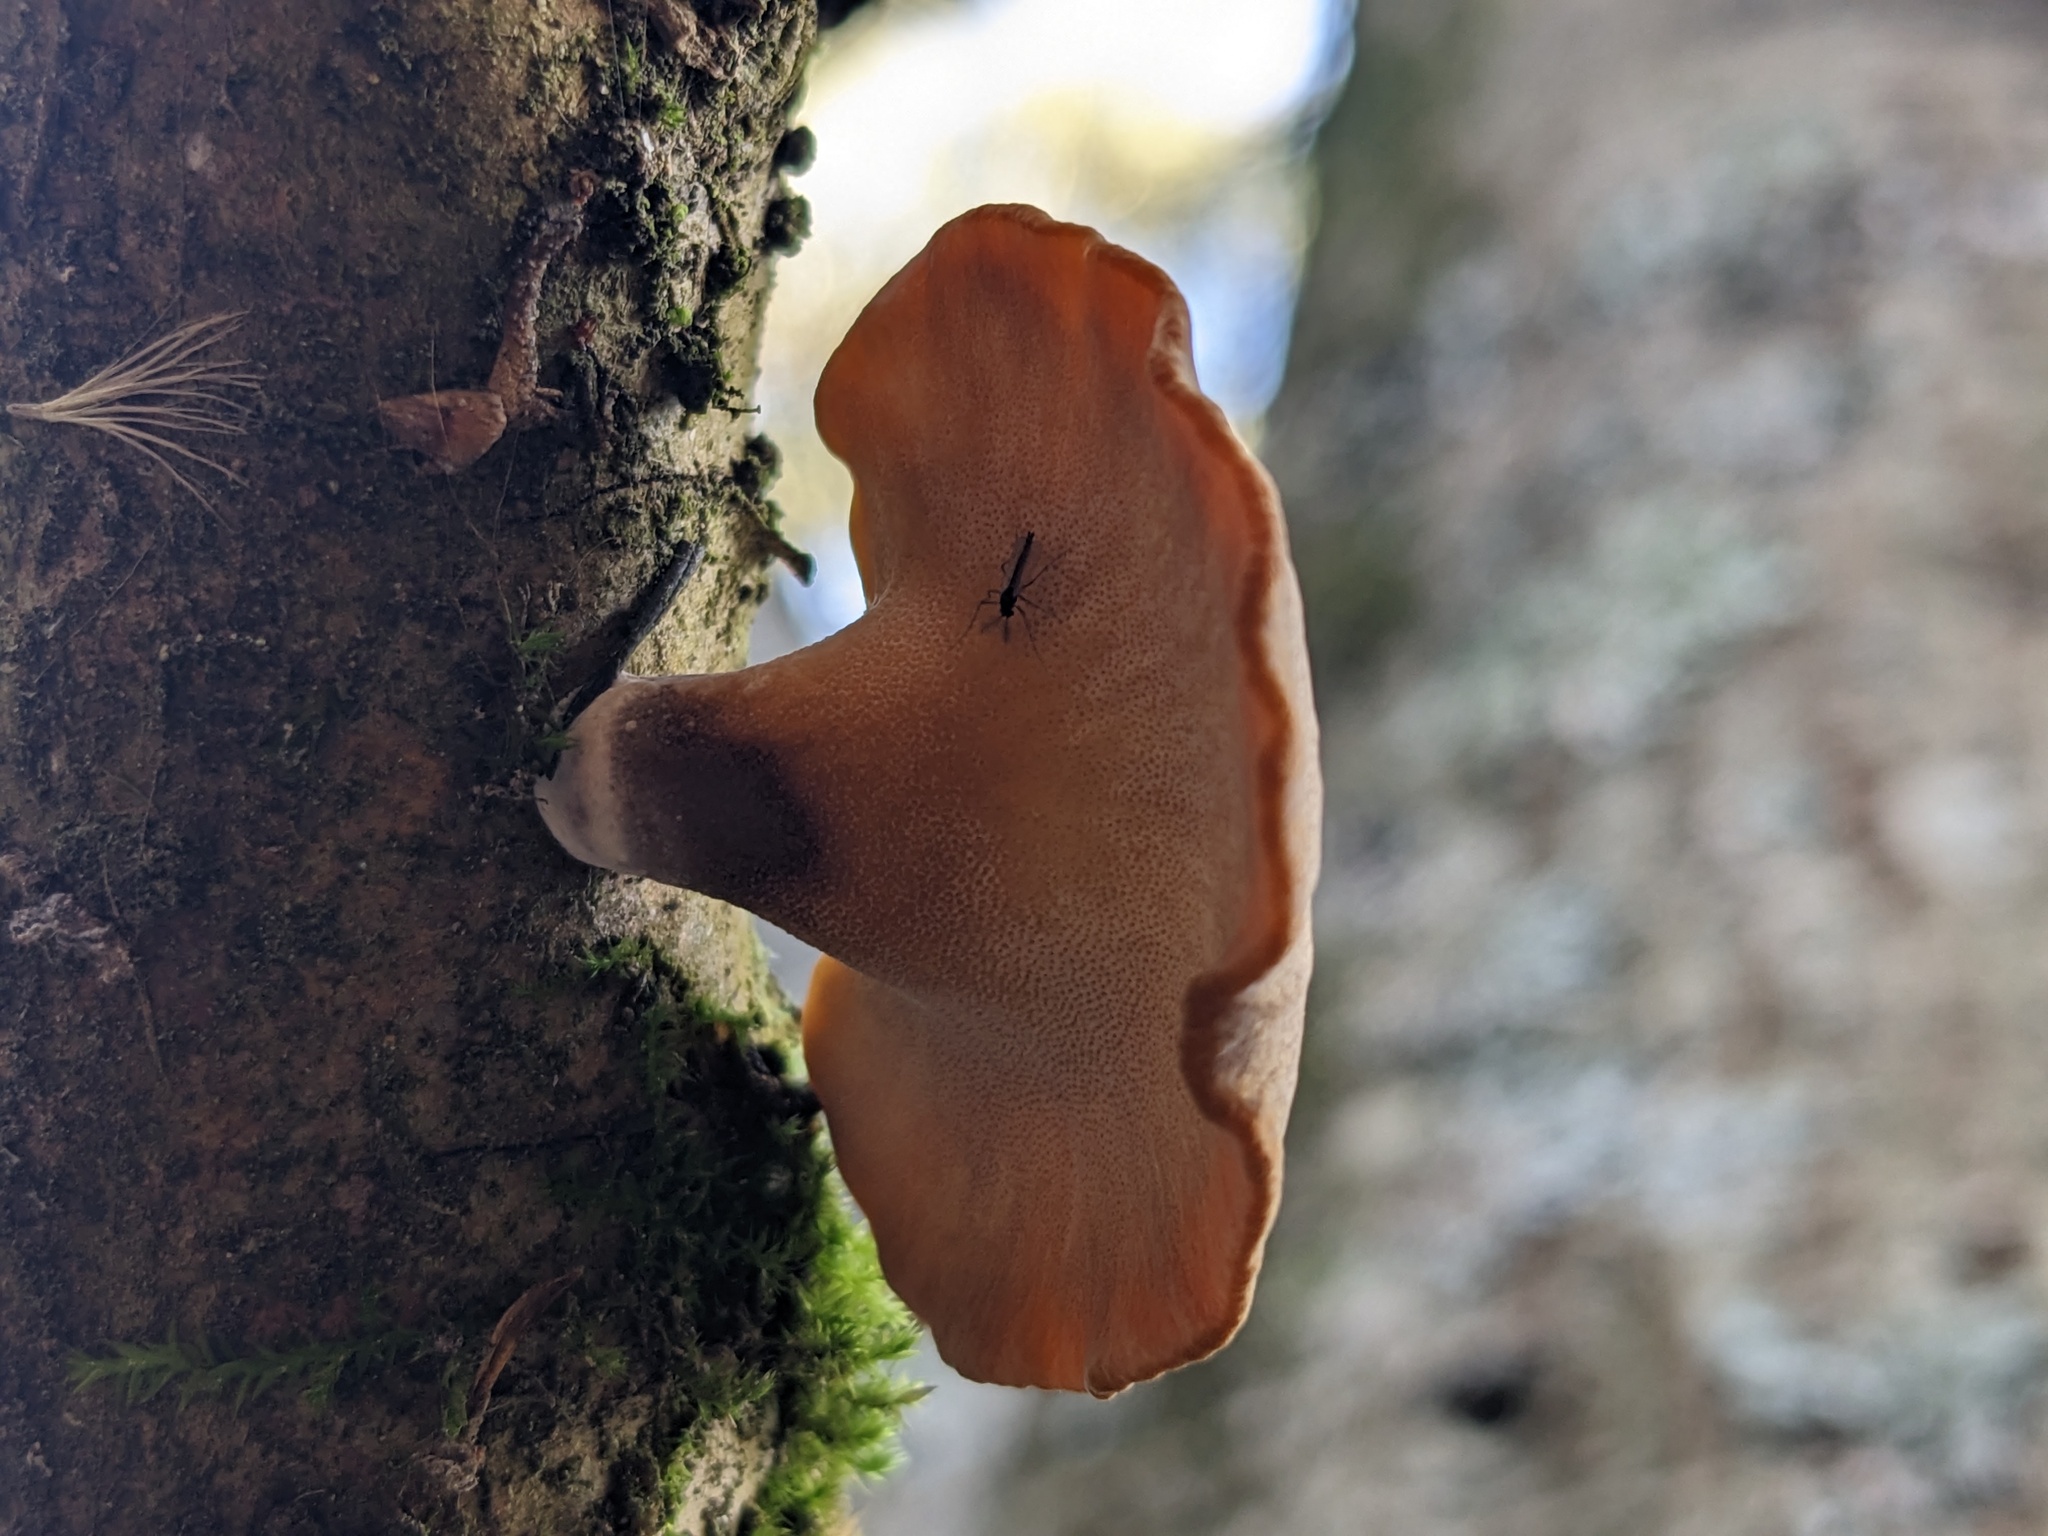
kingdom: Fungi
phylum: Basidiomycota
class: Agaricomycetes
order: Polyporales
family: Polyporaceae
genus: Cerioporus
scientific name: Cerioporus varius
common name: Elegant polypore
